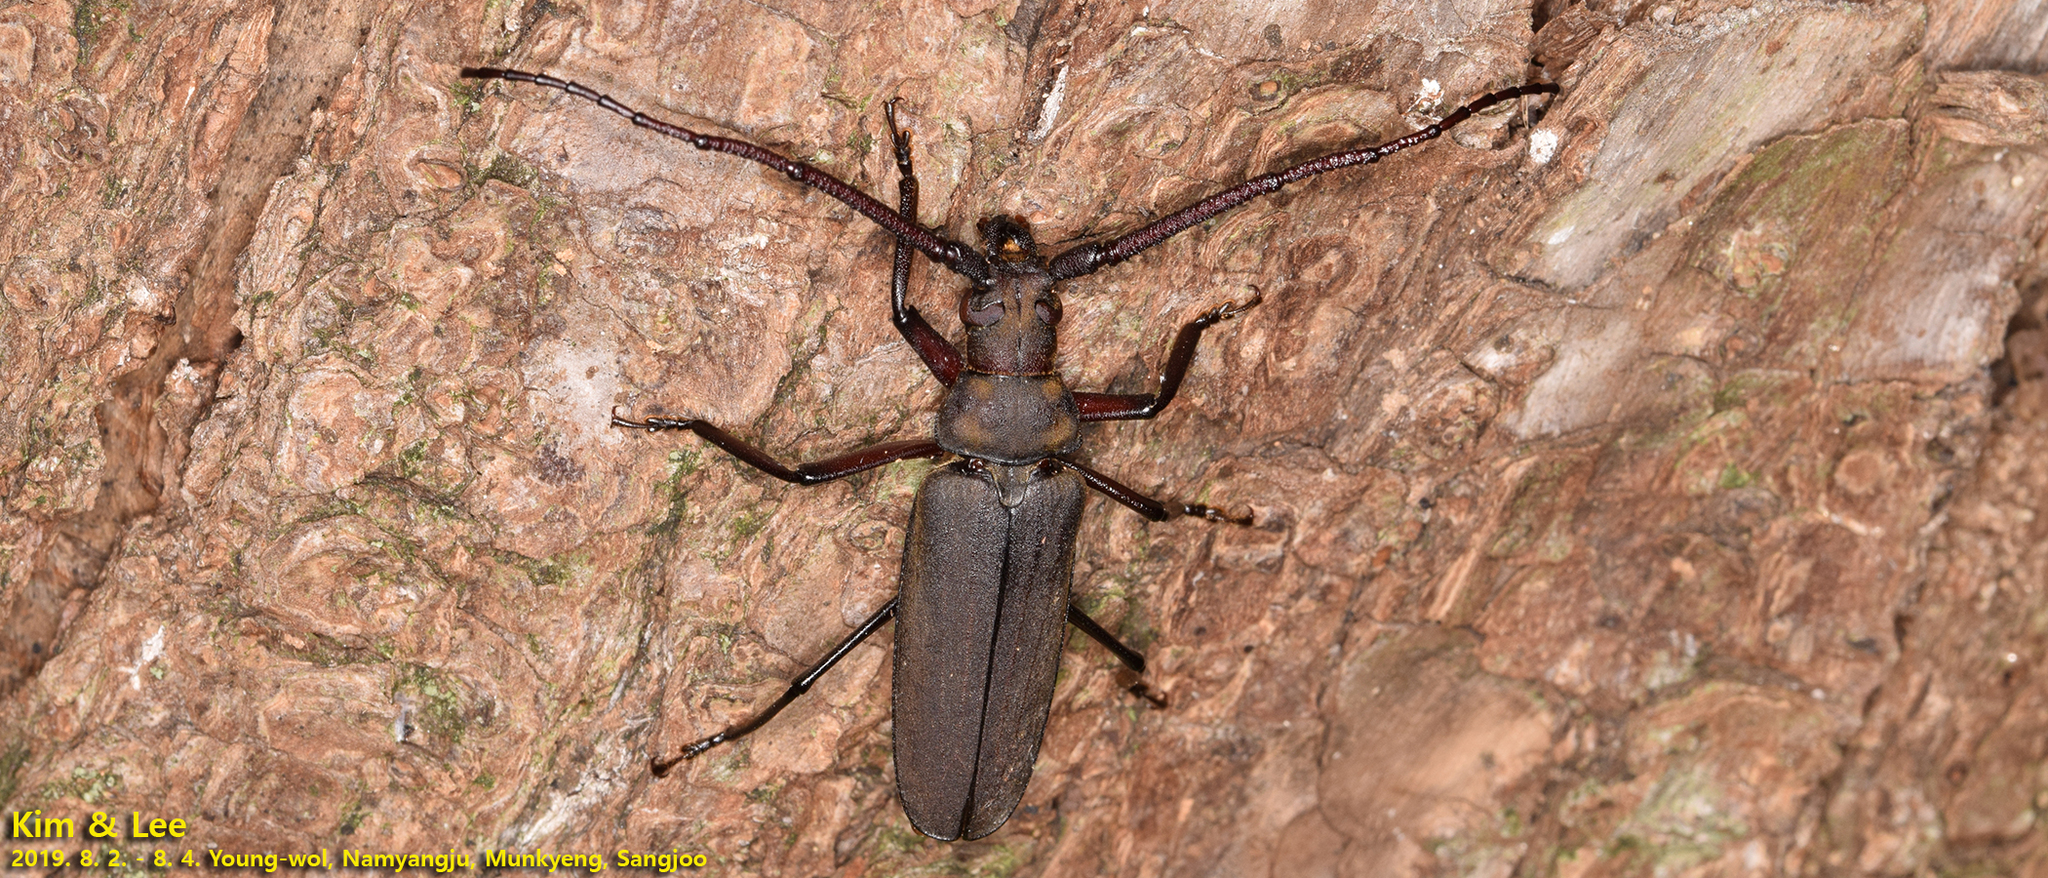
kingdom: Animalia
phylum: Arthropoda
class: Insecta
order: Coleoptera
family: Cerambycidae
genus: Aegosoma
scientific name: Aegosoma sinicum
